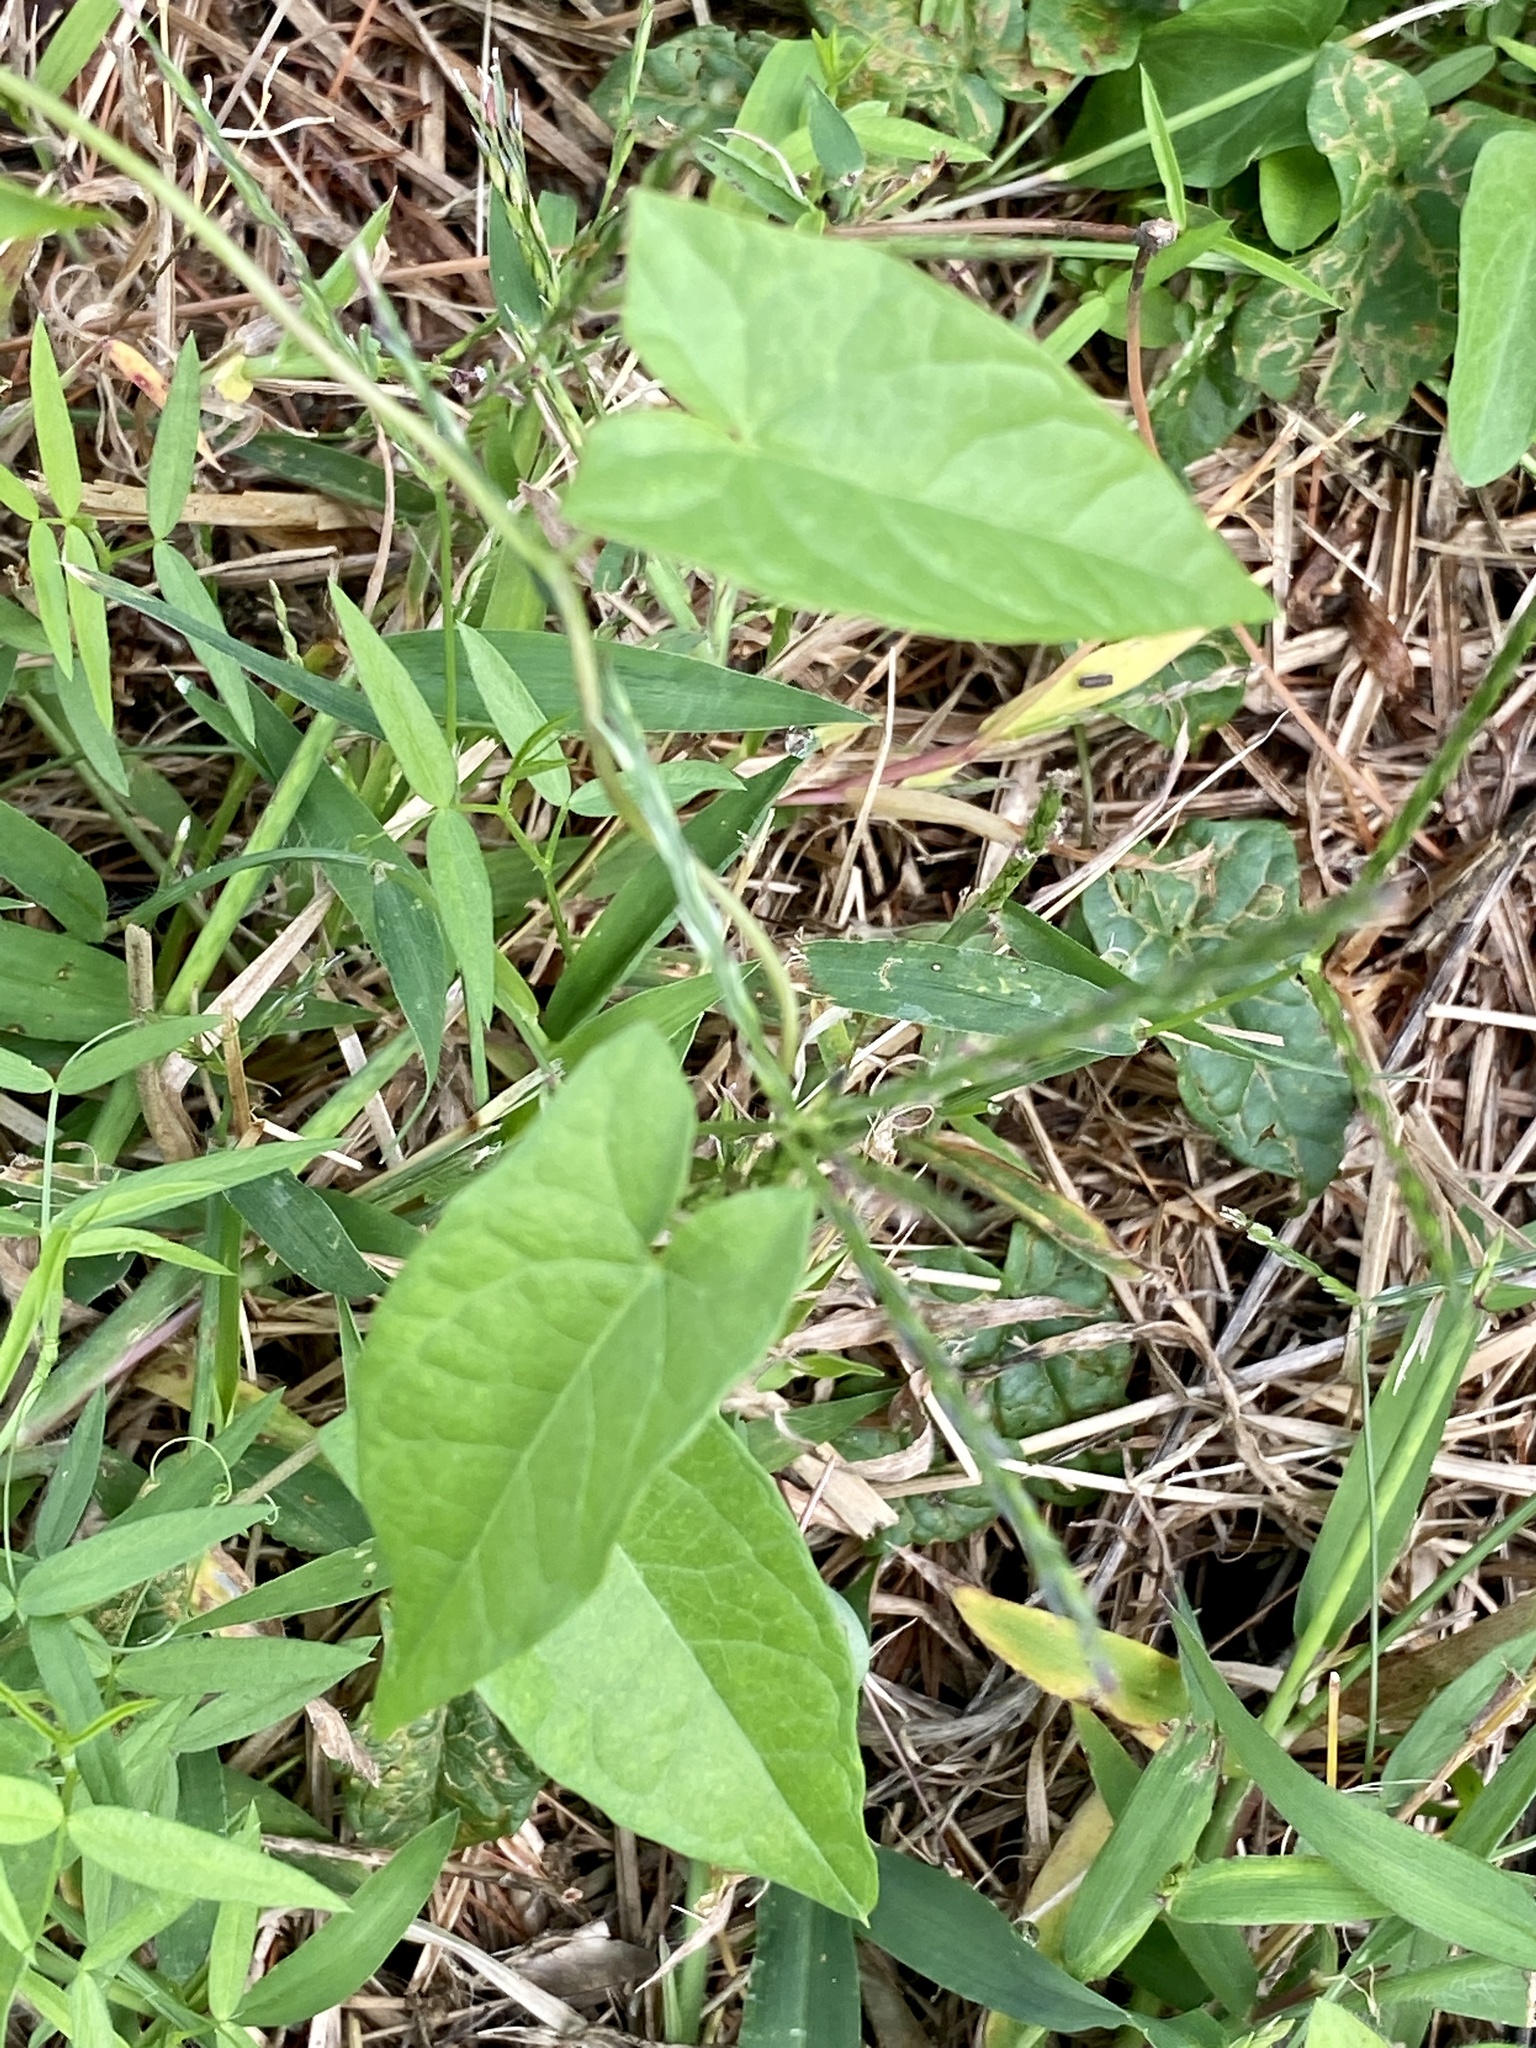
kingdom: Plantae
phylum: Tracheophyta
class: Magnoliopsida
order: Solanales
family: Convolvulaceae
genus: Calystegia
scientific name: Calystegia sepium
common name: Hedge bindweed
